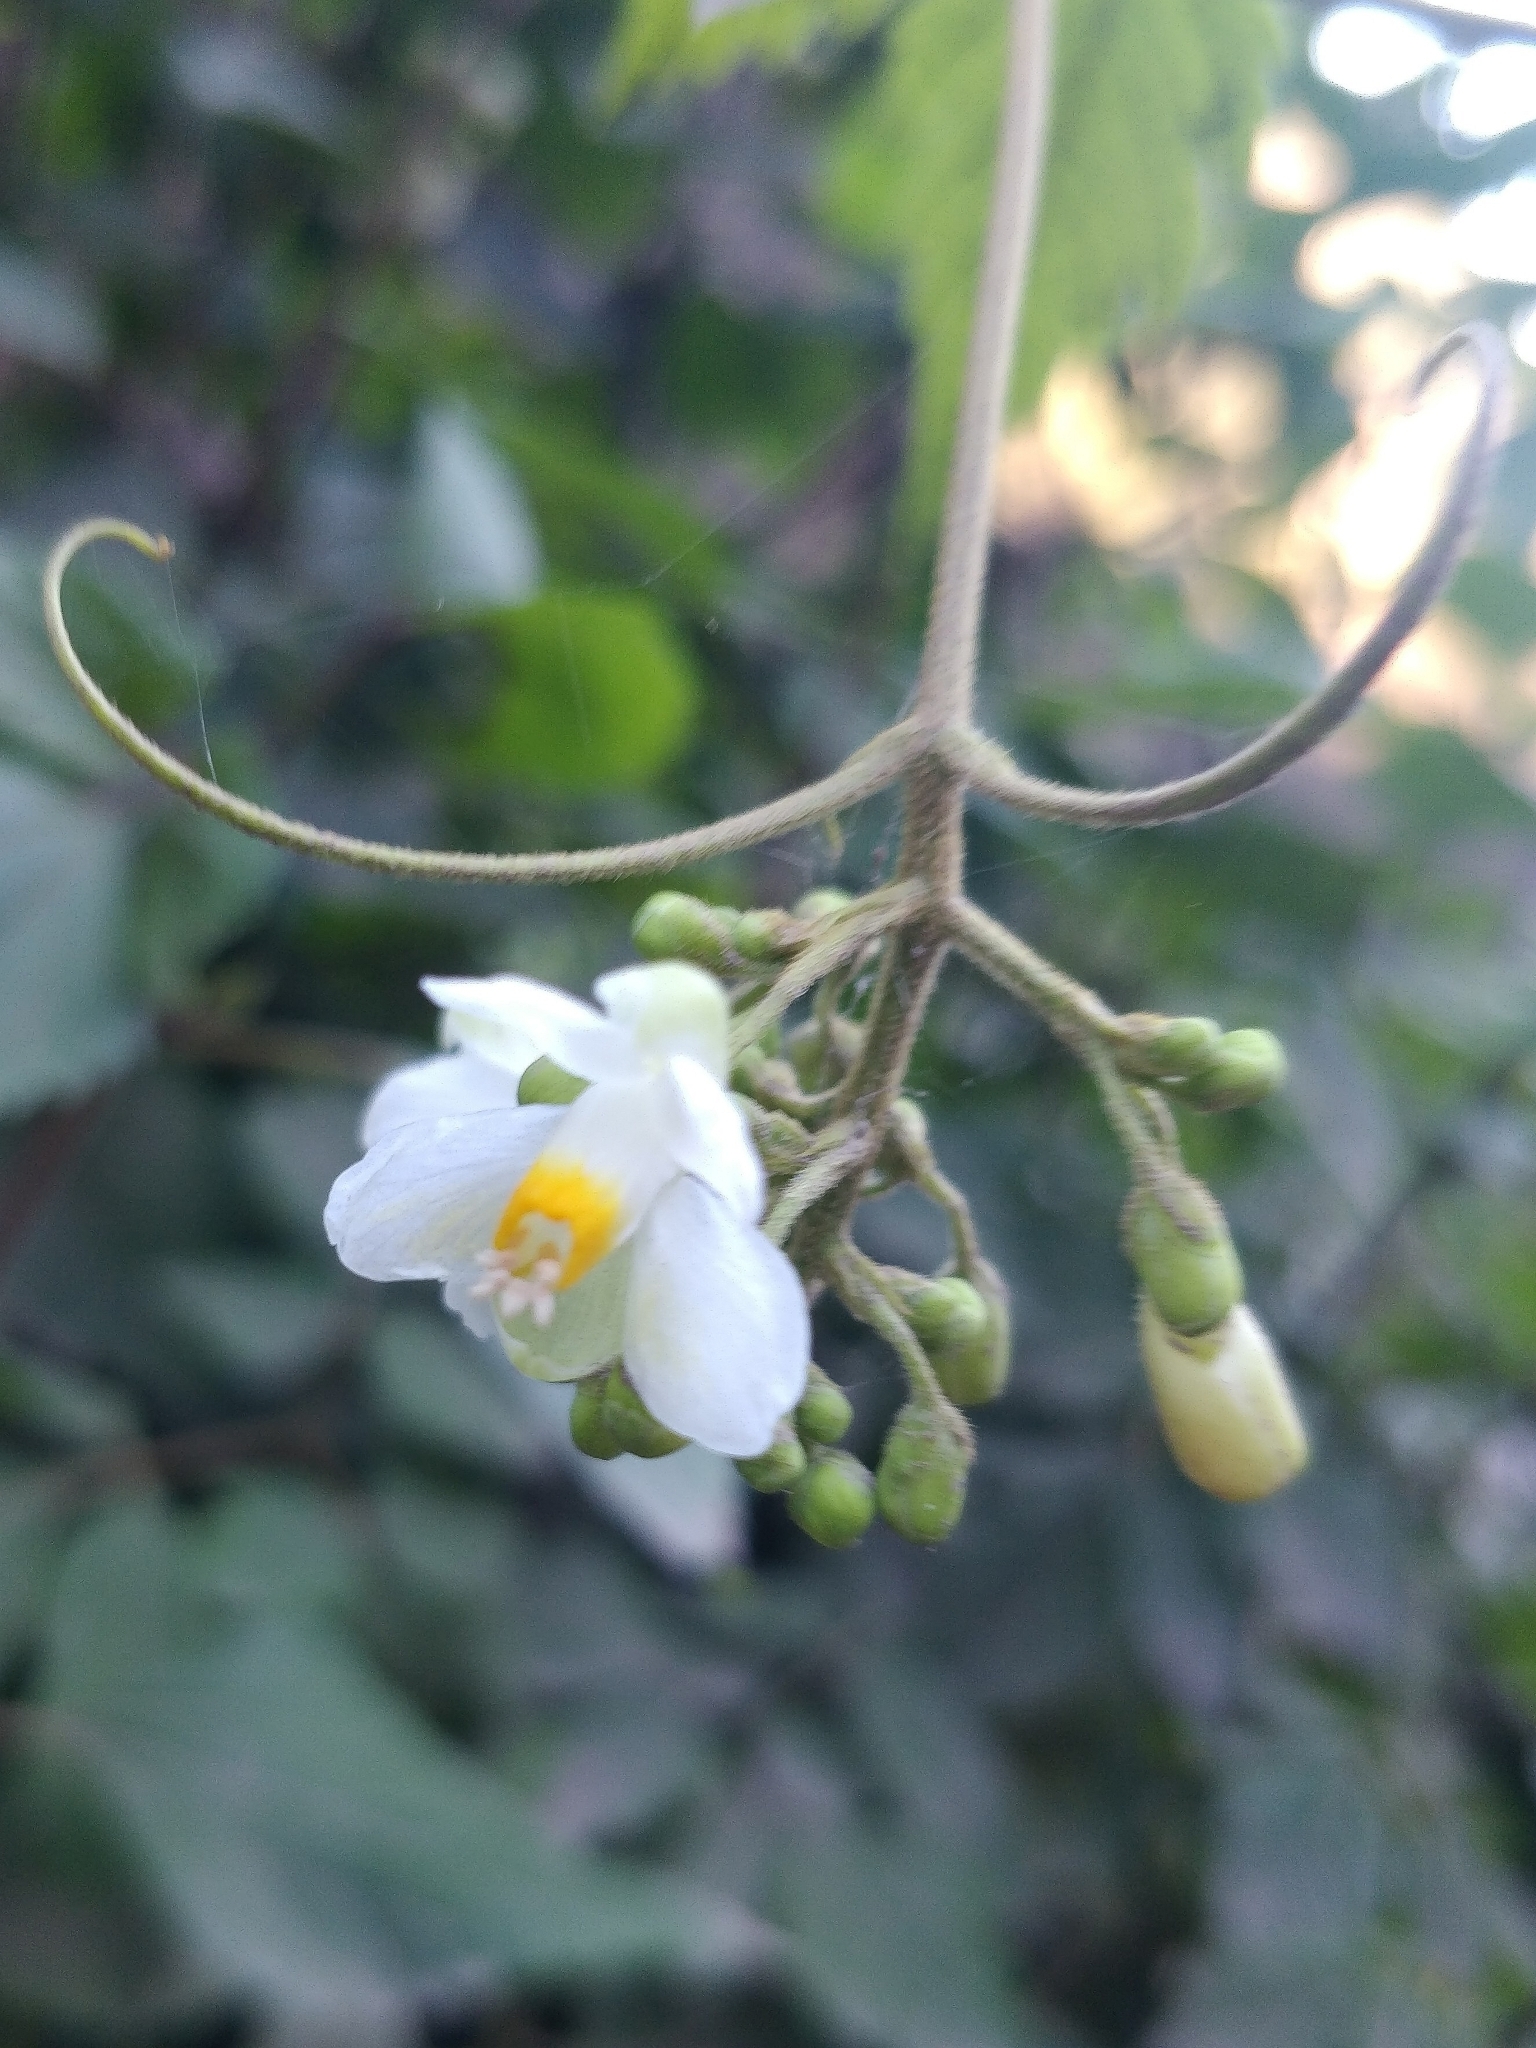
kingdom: Plantae
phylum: Tracheophyta
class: Magnoliopsida
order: Sapindales
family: Sapindaceae
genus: Cardiospermum
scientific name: Cardiospermum grandiflorum
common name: Balloon vine
